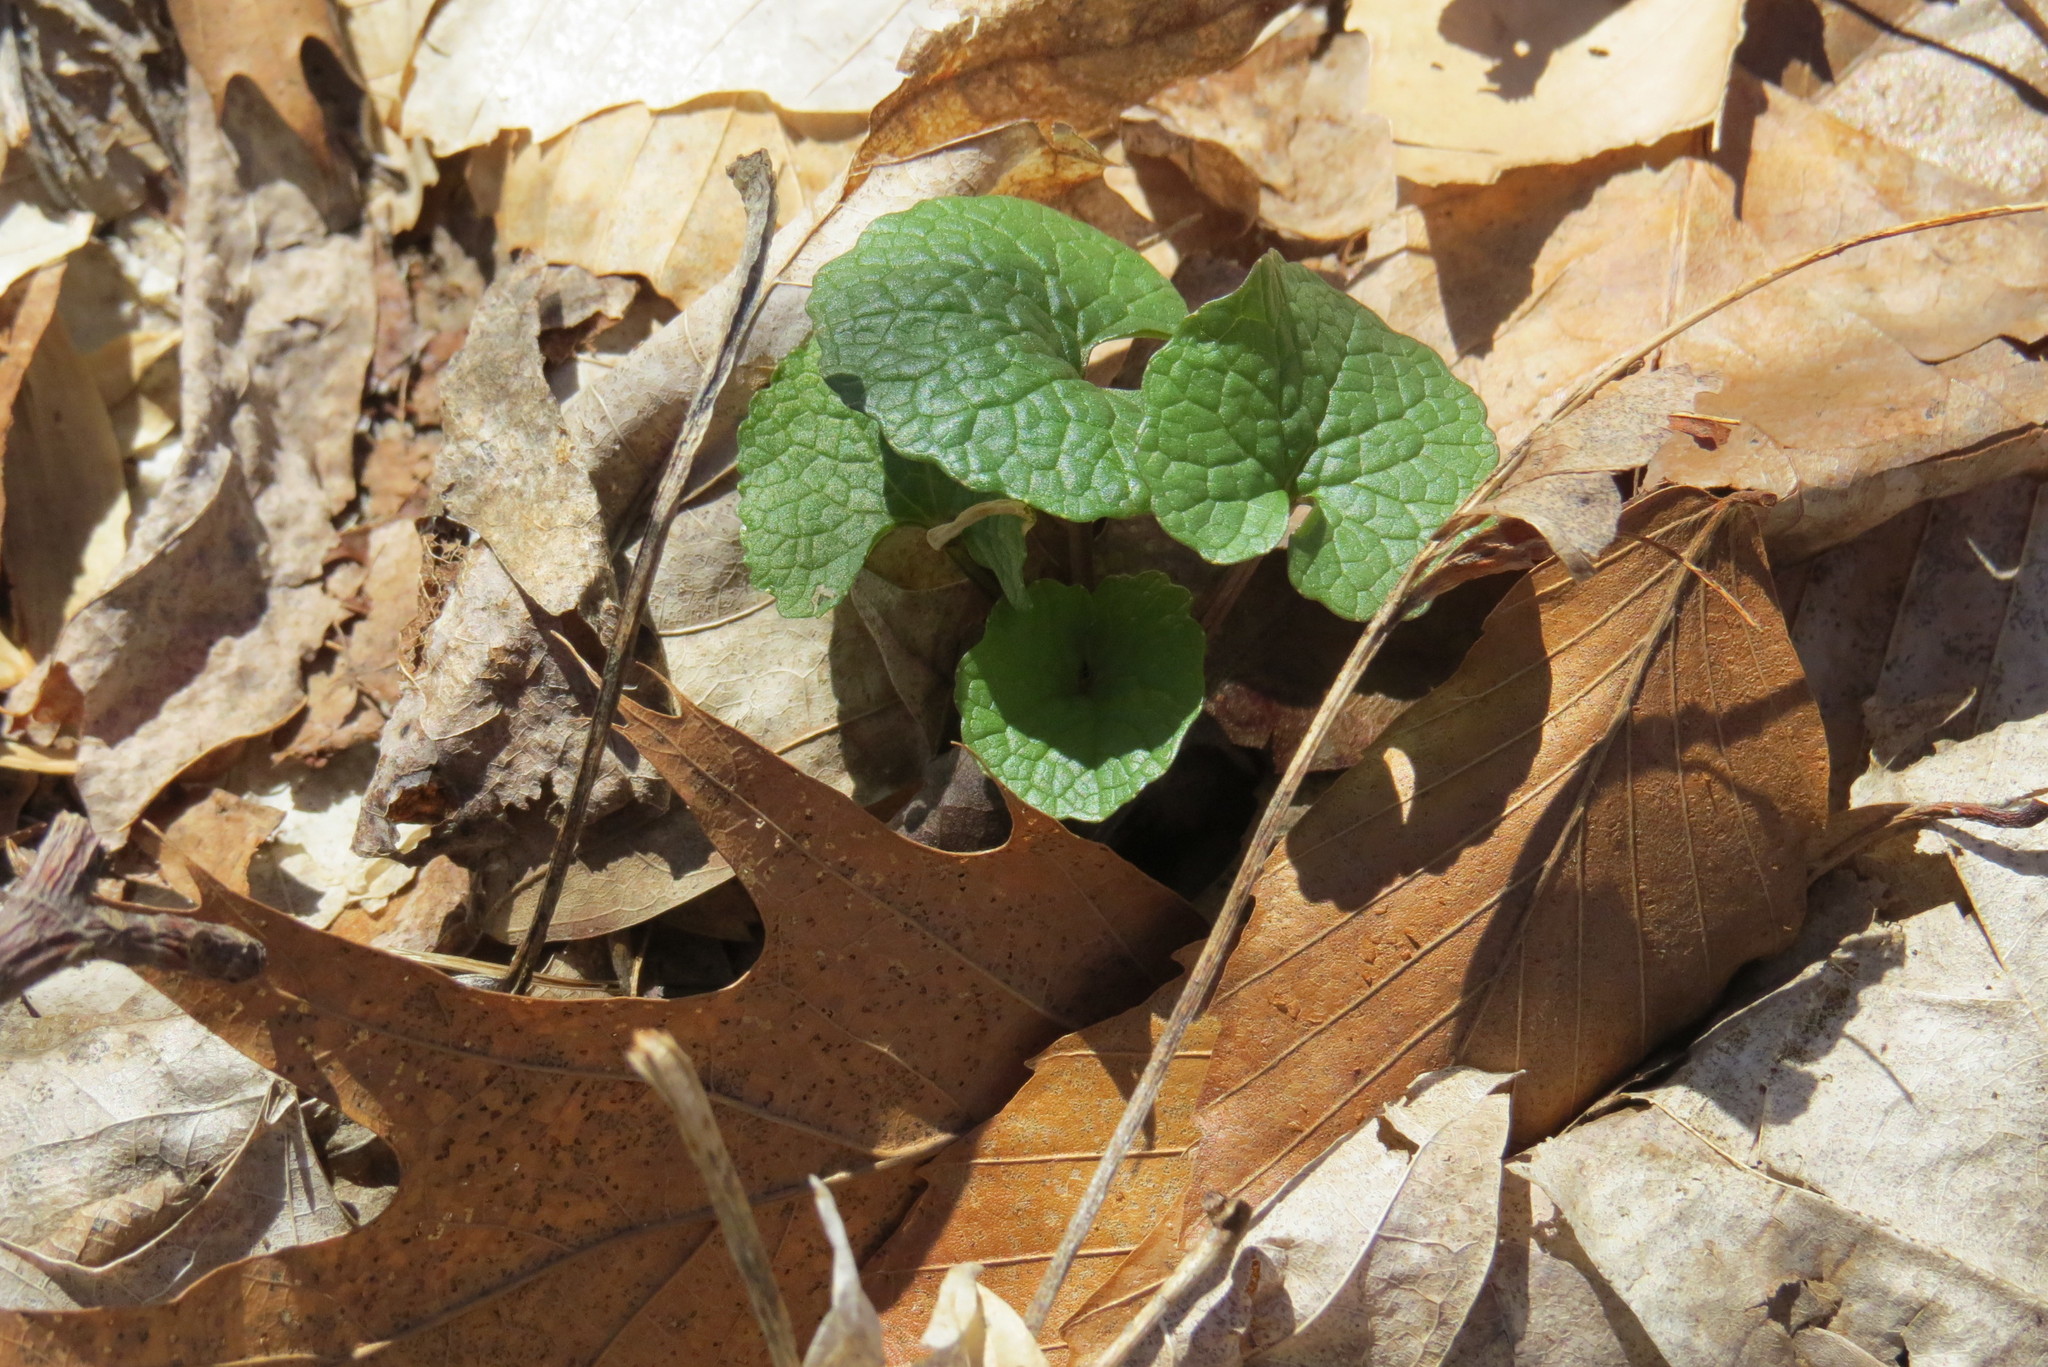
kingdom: Plantae
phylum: Tracheophyta
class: Magnoliopsida
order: Brassicales
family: Brassicaceae
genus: Alliaria
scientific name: Alliaria petiolata
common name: Garlic mustard
